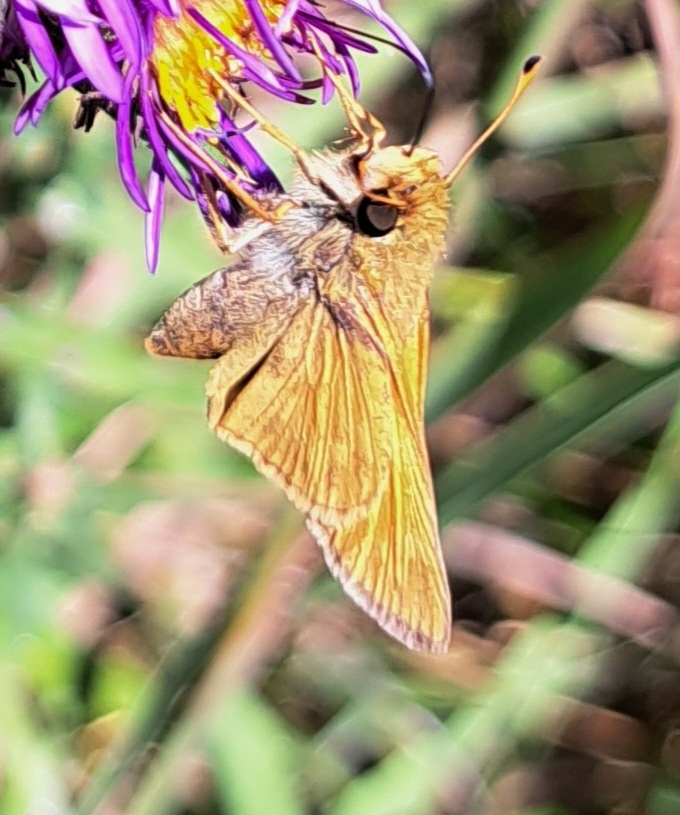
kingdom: Animalia
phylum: Arthropoda
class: Insecta
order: Lepidoptera
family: Hesperiidae
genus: Atalopedes
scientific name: Atalopedes
